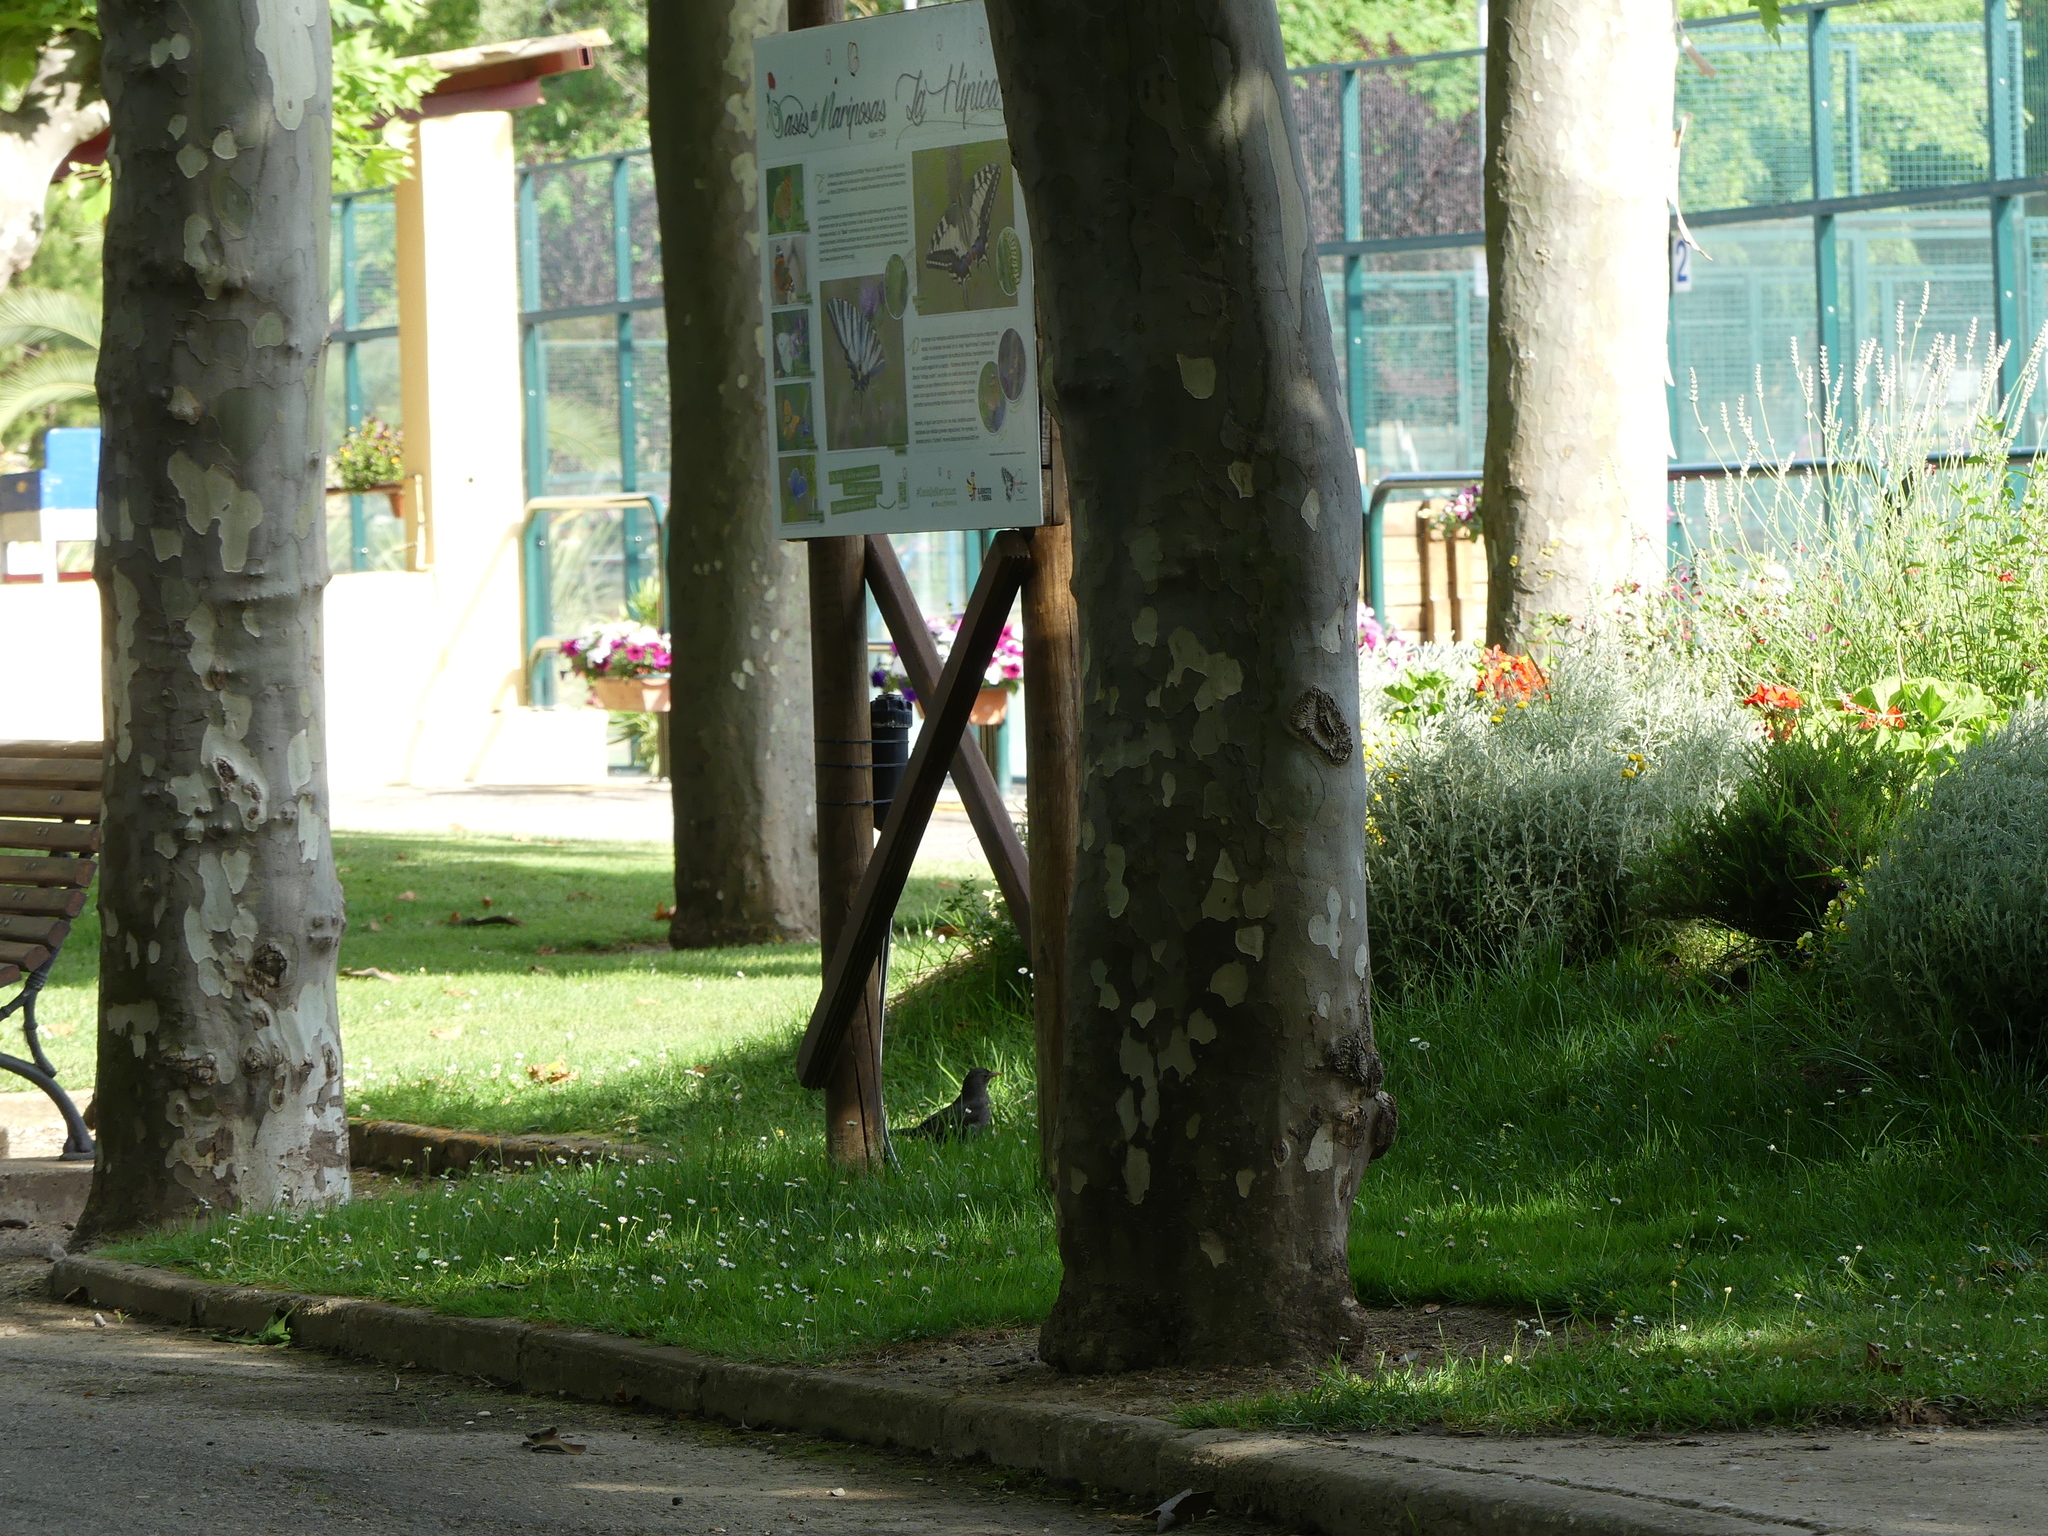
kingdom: Animalia
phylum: Chordata
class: Aves
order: Passeriformes
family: Turdidae
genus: Turdus
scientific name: Turdus merula
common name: Common blackbird
